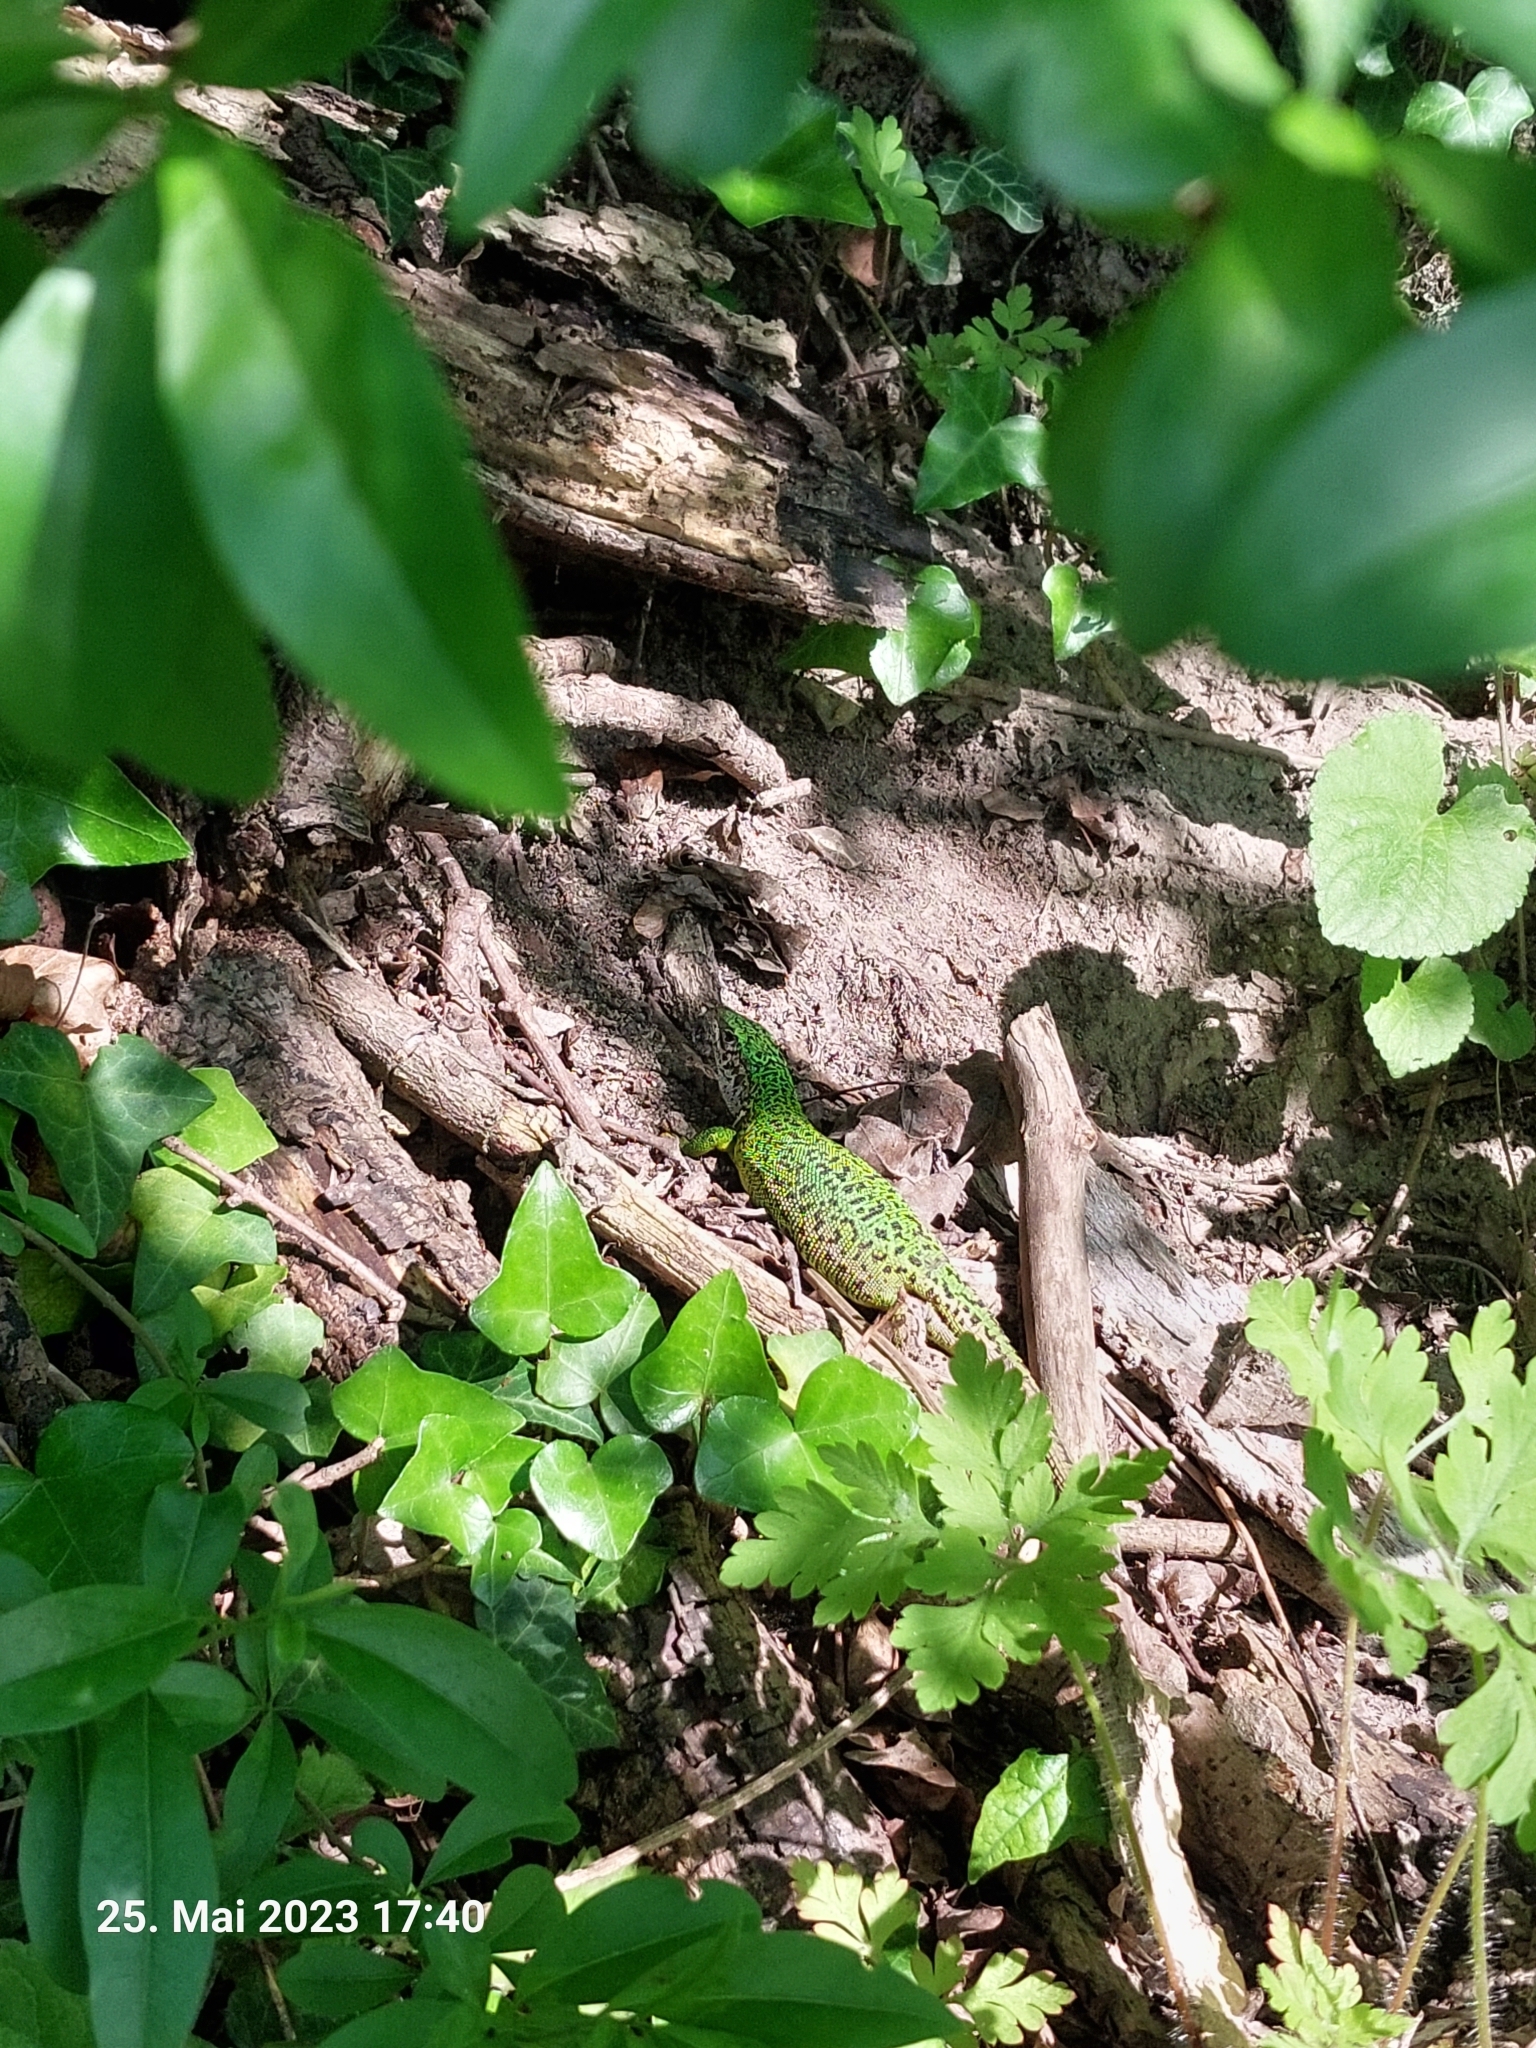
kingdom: Animalia
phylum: Chordata
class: Squamata
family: Lacertidae
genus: Lacerta
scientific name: Lacerta viridis
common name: European green lizard
